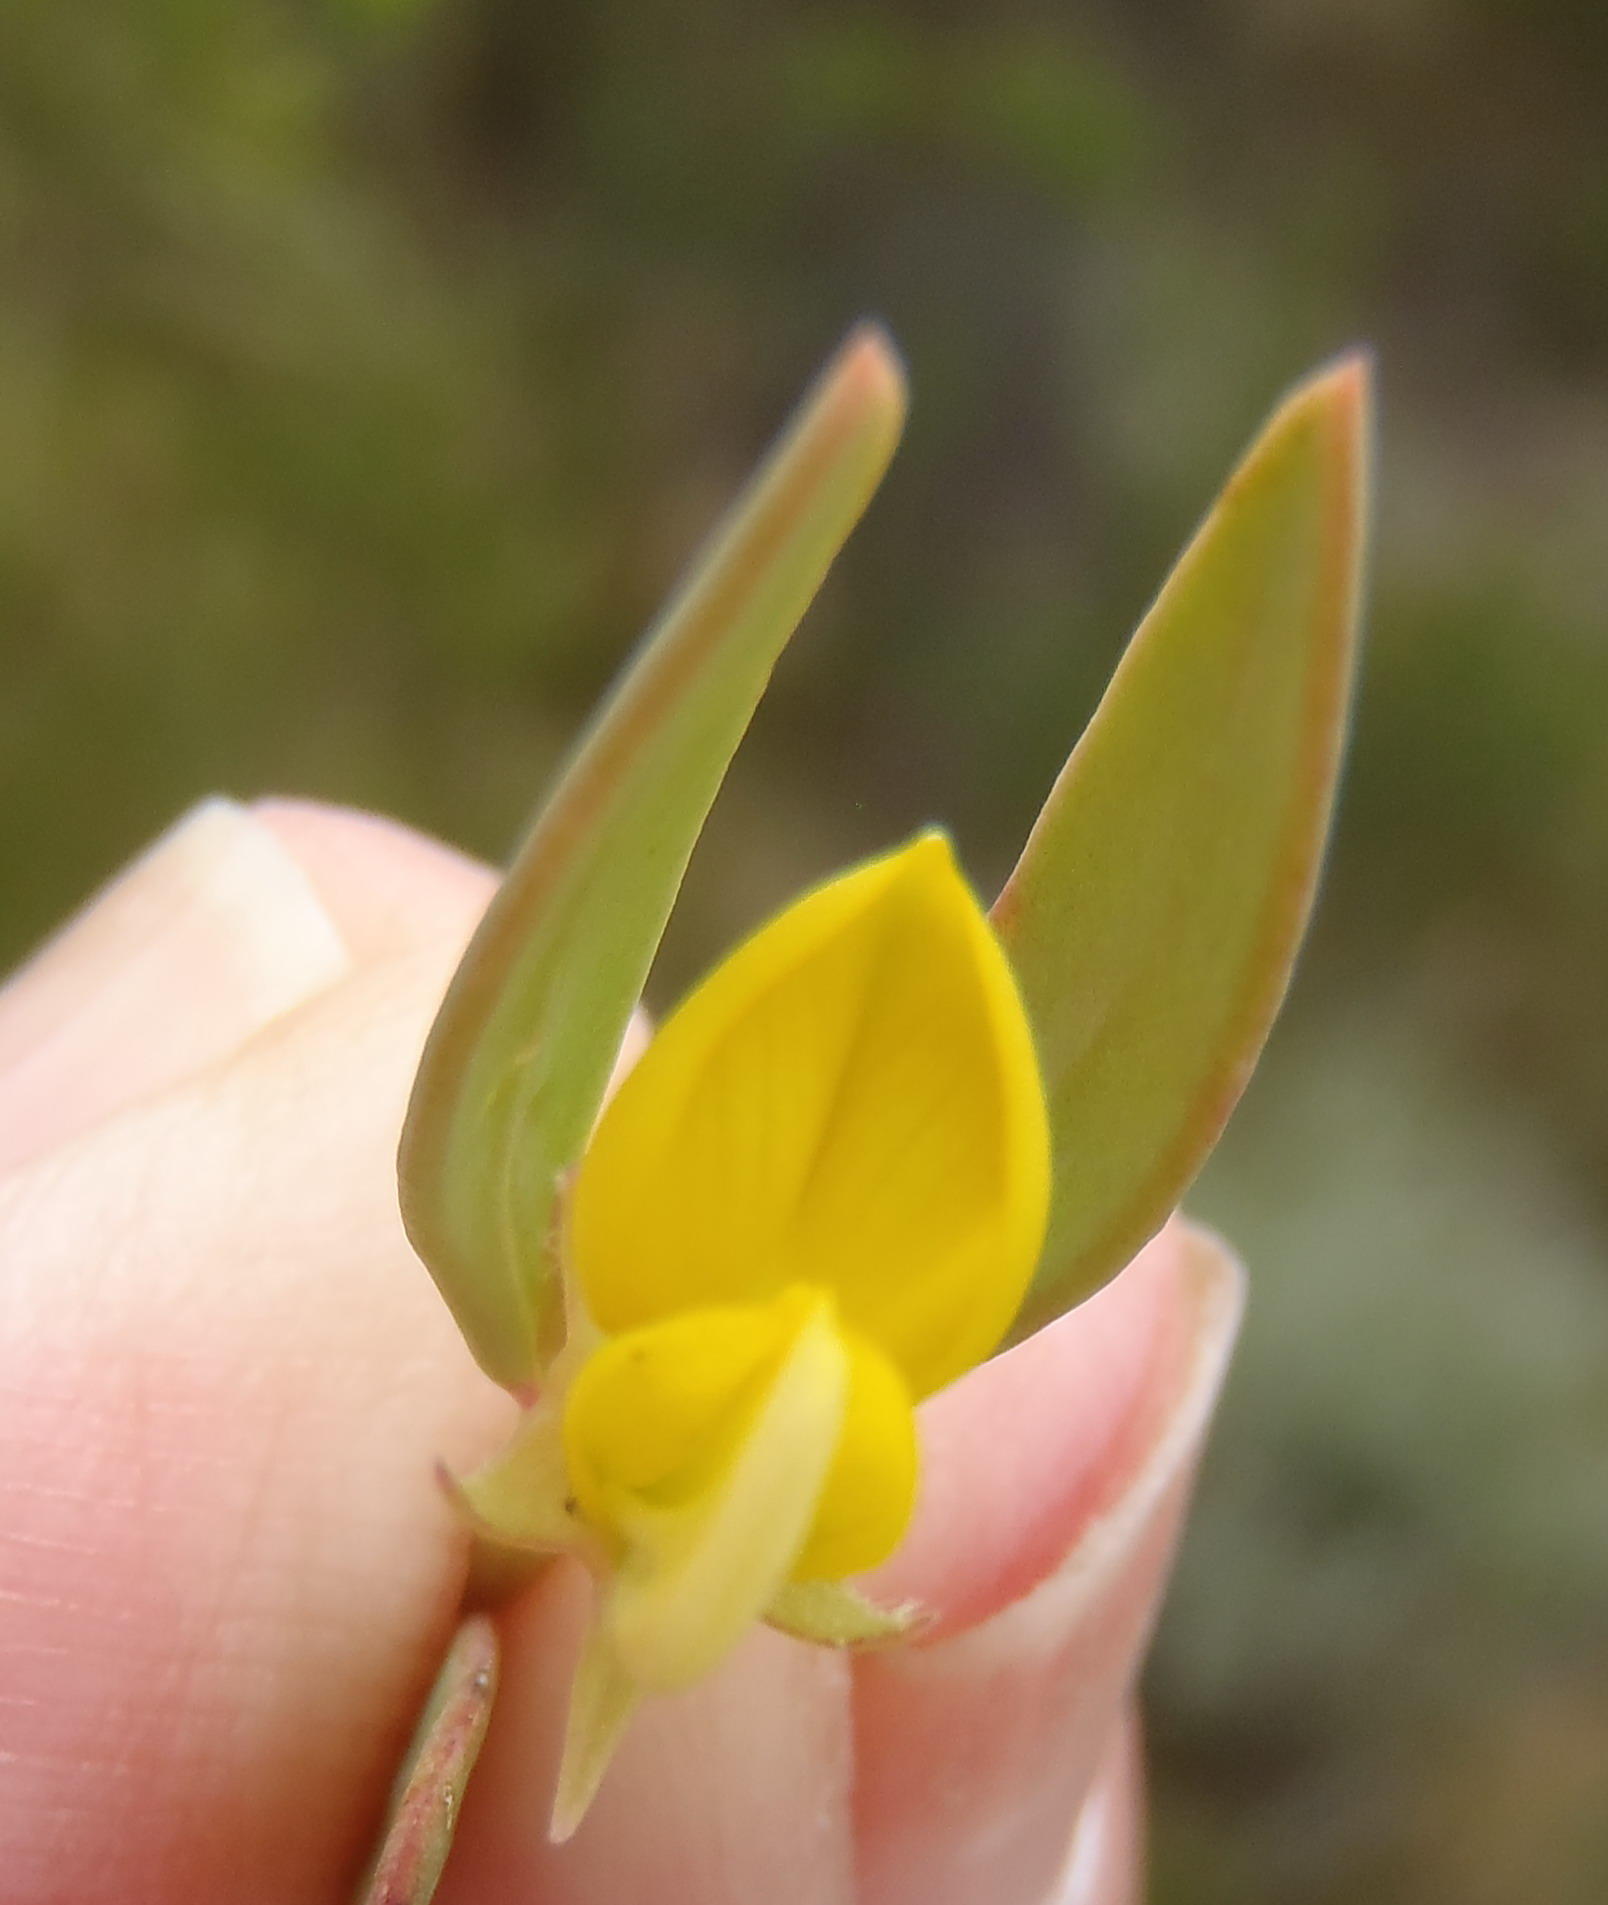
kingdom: Plantae
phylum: Tracheophyta
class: Magnoliopsida
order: Fabales
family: Fabaceae
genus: Rafnia
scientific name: Rafnia capensis
